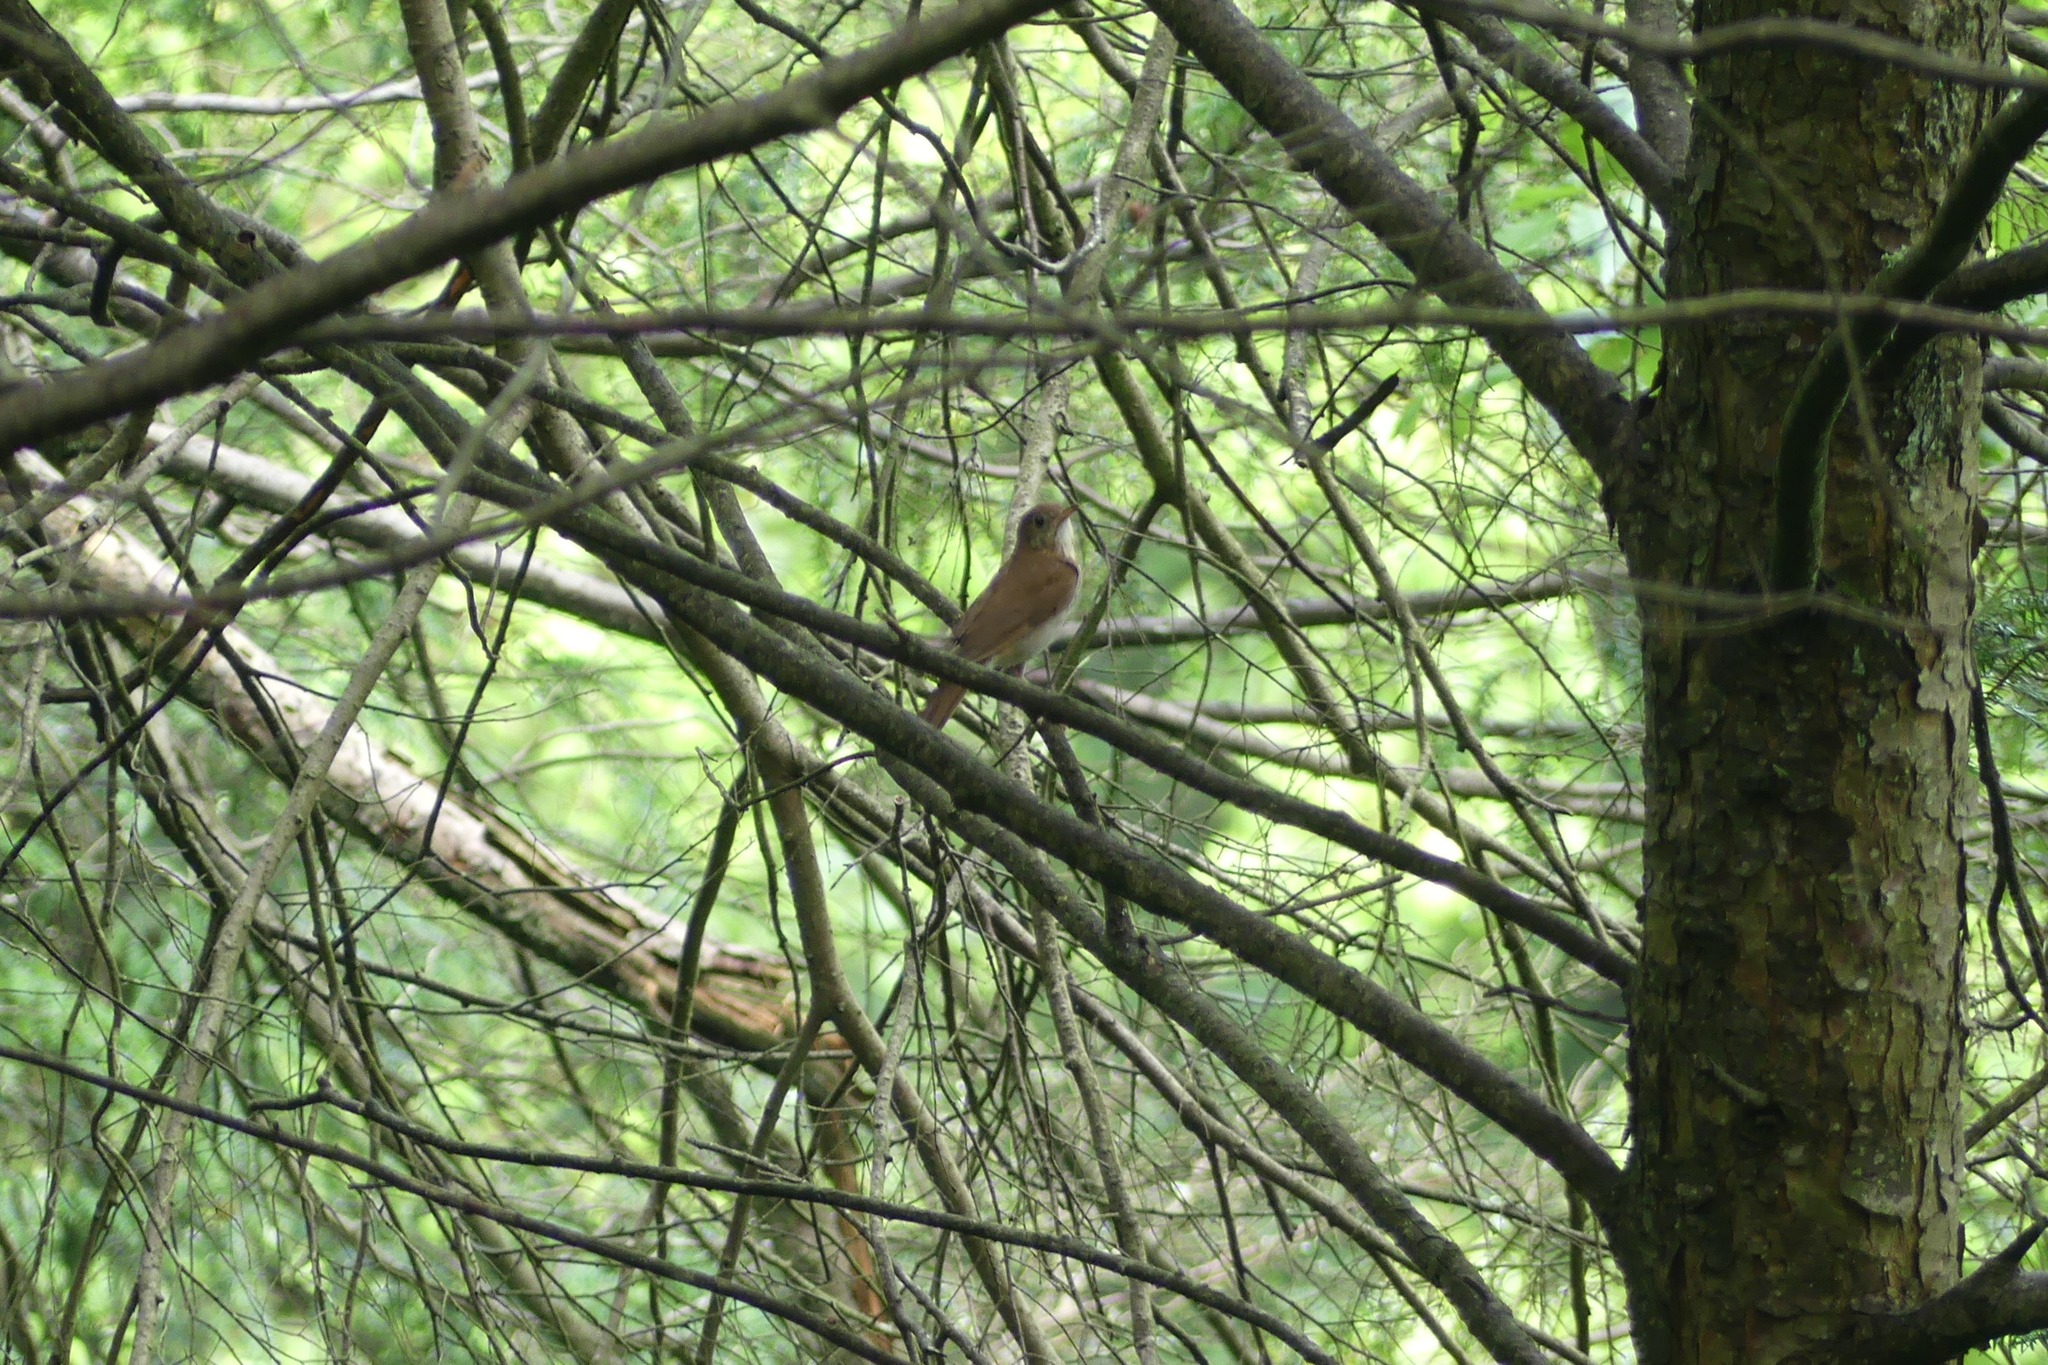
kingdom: Animalia
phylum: Chordata
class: Aves
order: Passeriformes
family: Turdidae
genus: Catharus
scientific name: Catharus fuscescens
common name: Veery
